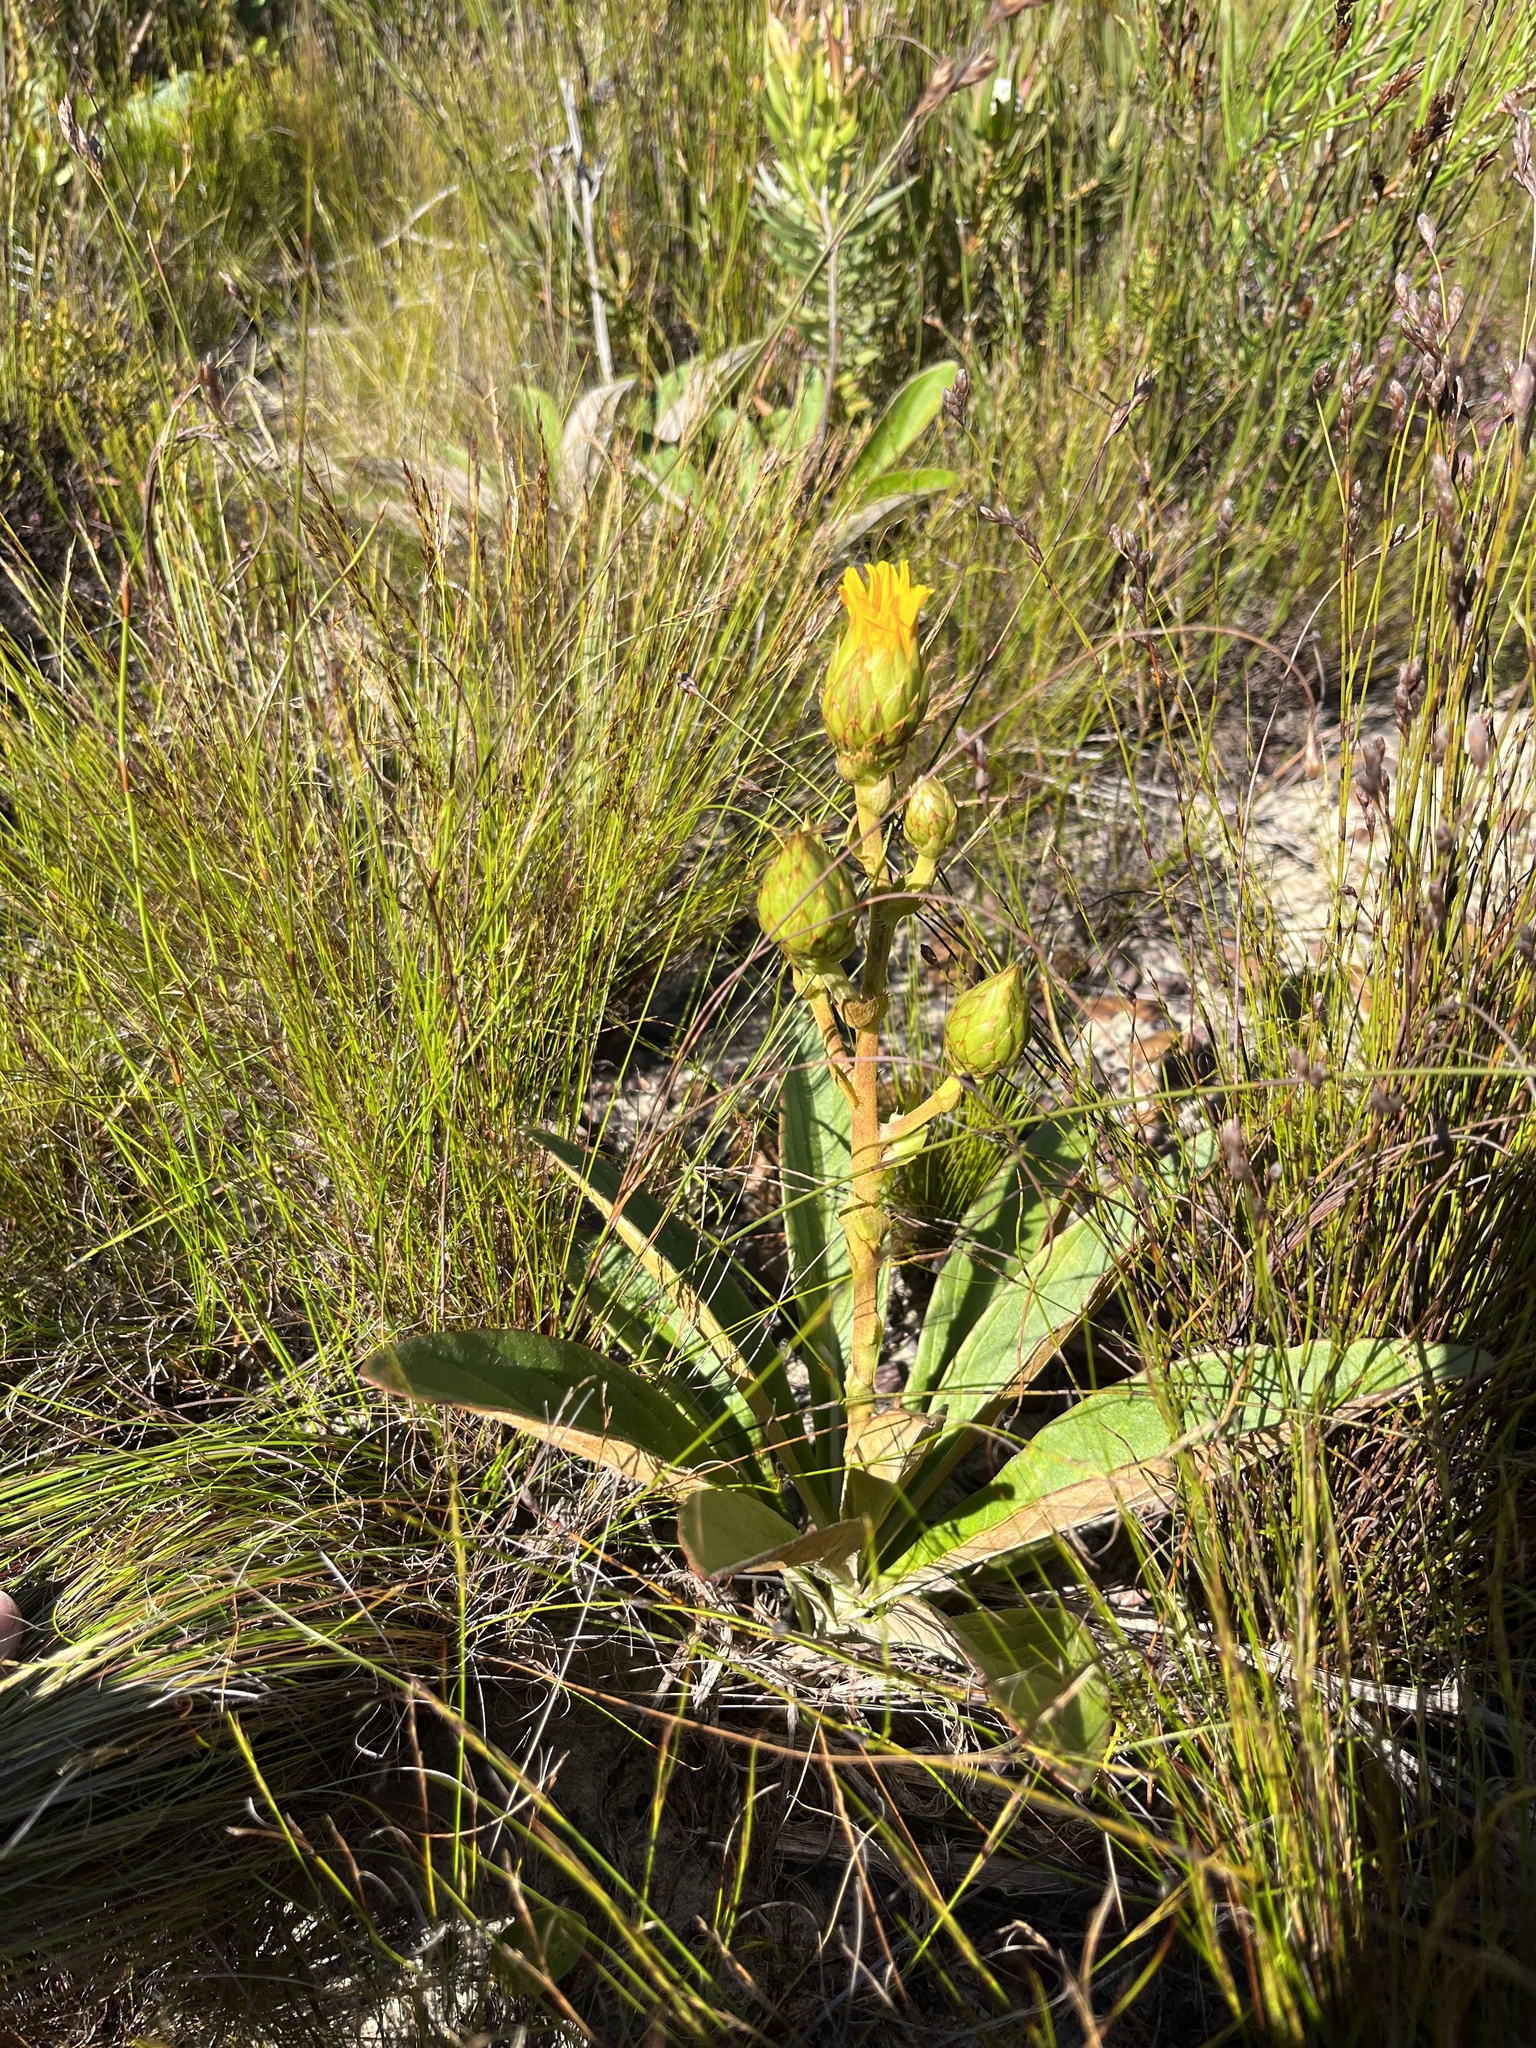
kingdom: Plantae
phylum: Tracheophyta
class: Magnoliopsida
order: Asterales
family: Asteraceae
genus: Berkheya
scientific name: Berkheya herbacea
